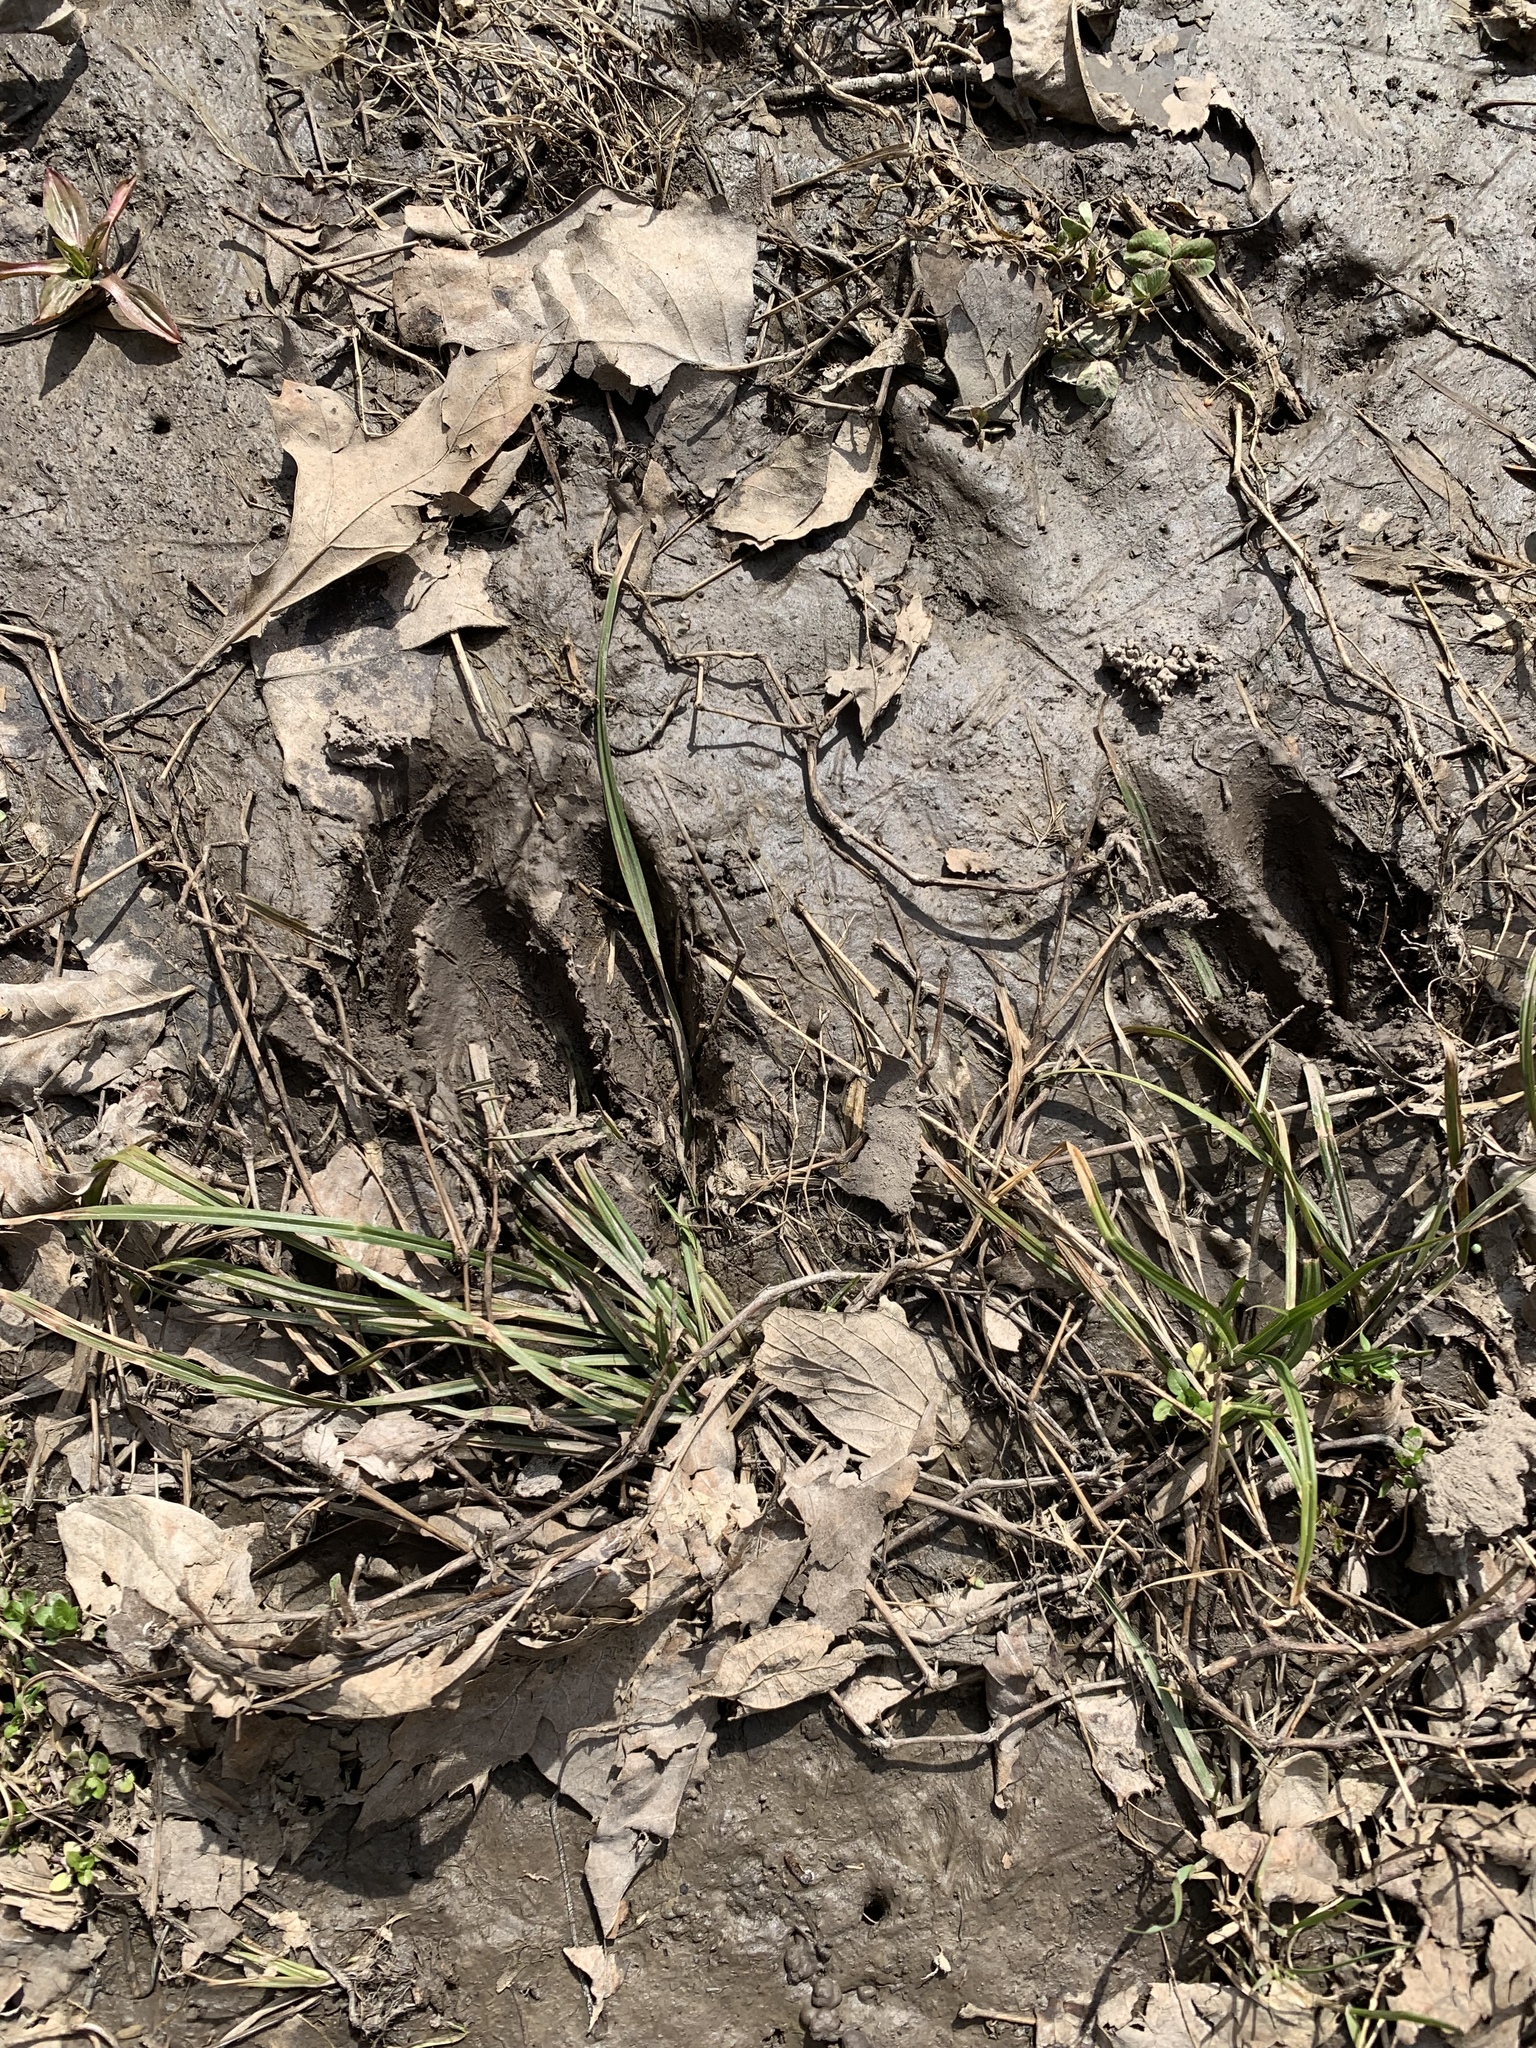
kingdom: Animalia
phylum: Chordata
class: Mammalia
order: Artiodactyla
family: Cervidae
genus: Odocoileus
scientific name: Odocoileus virginianus
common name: White-tailed deer
